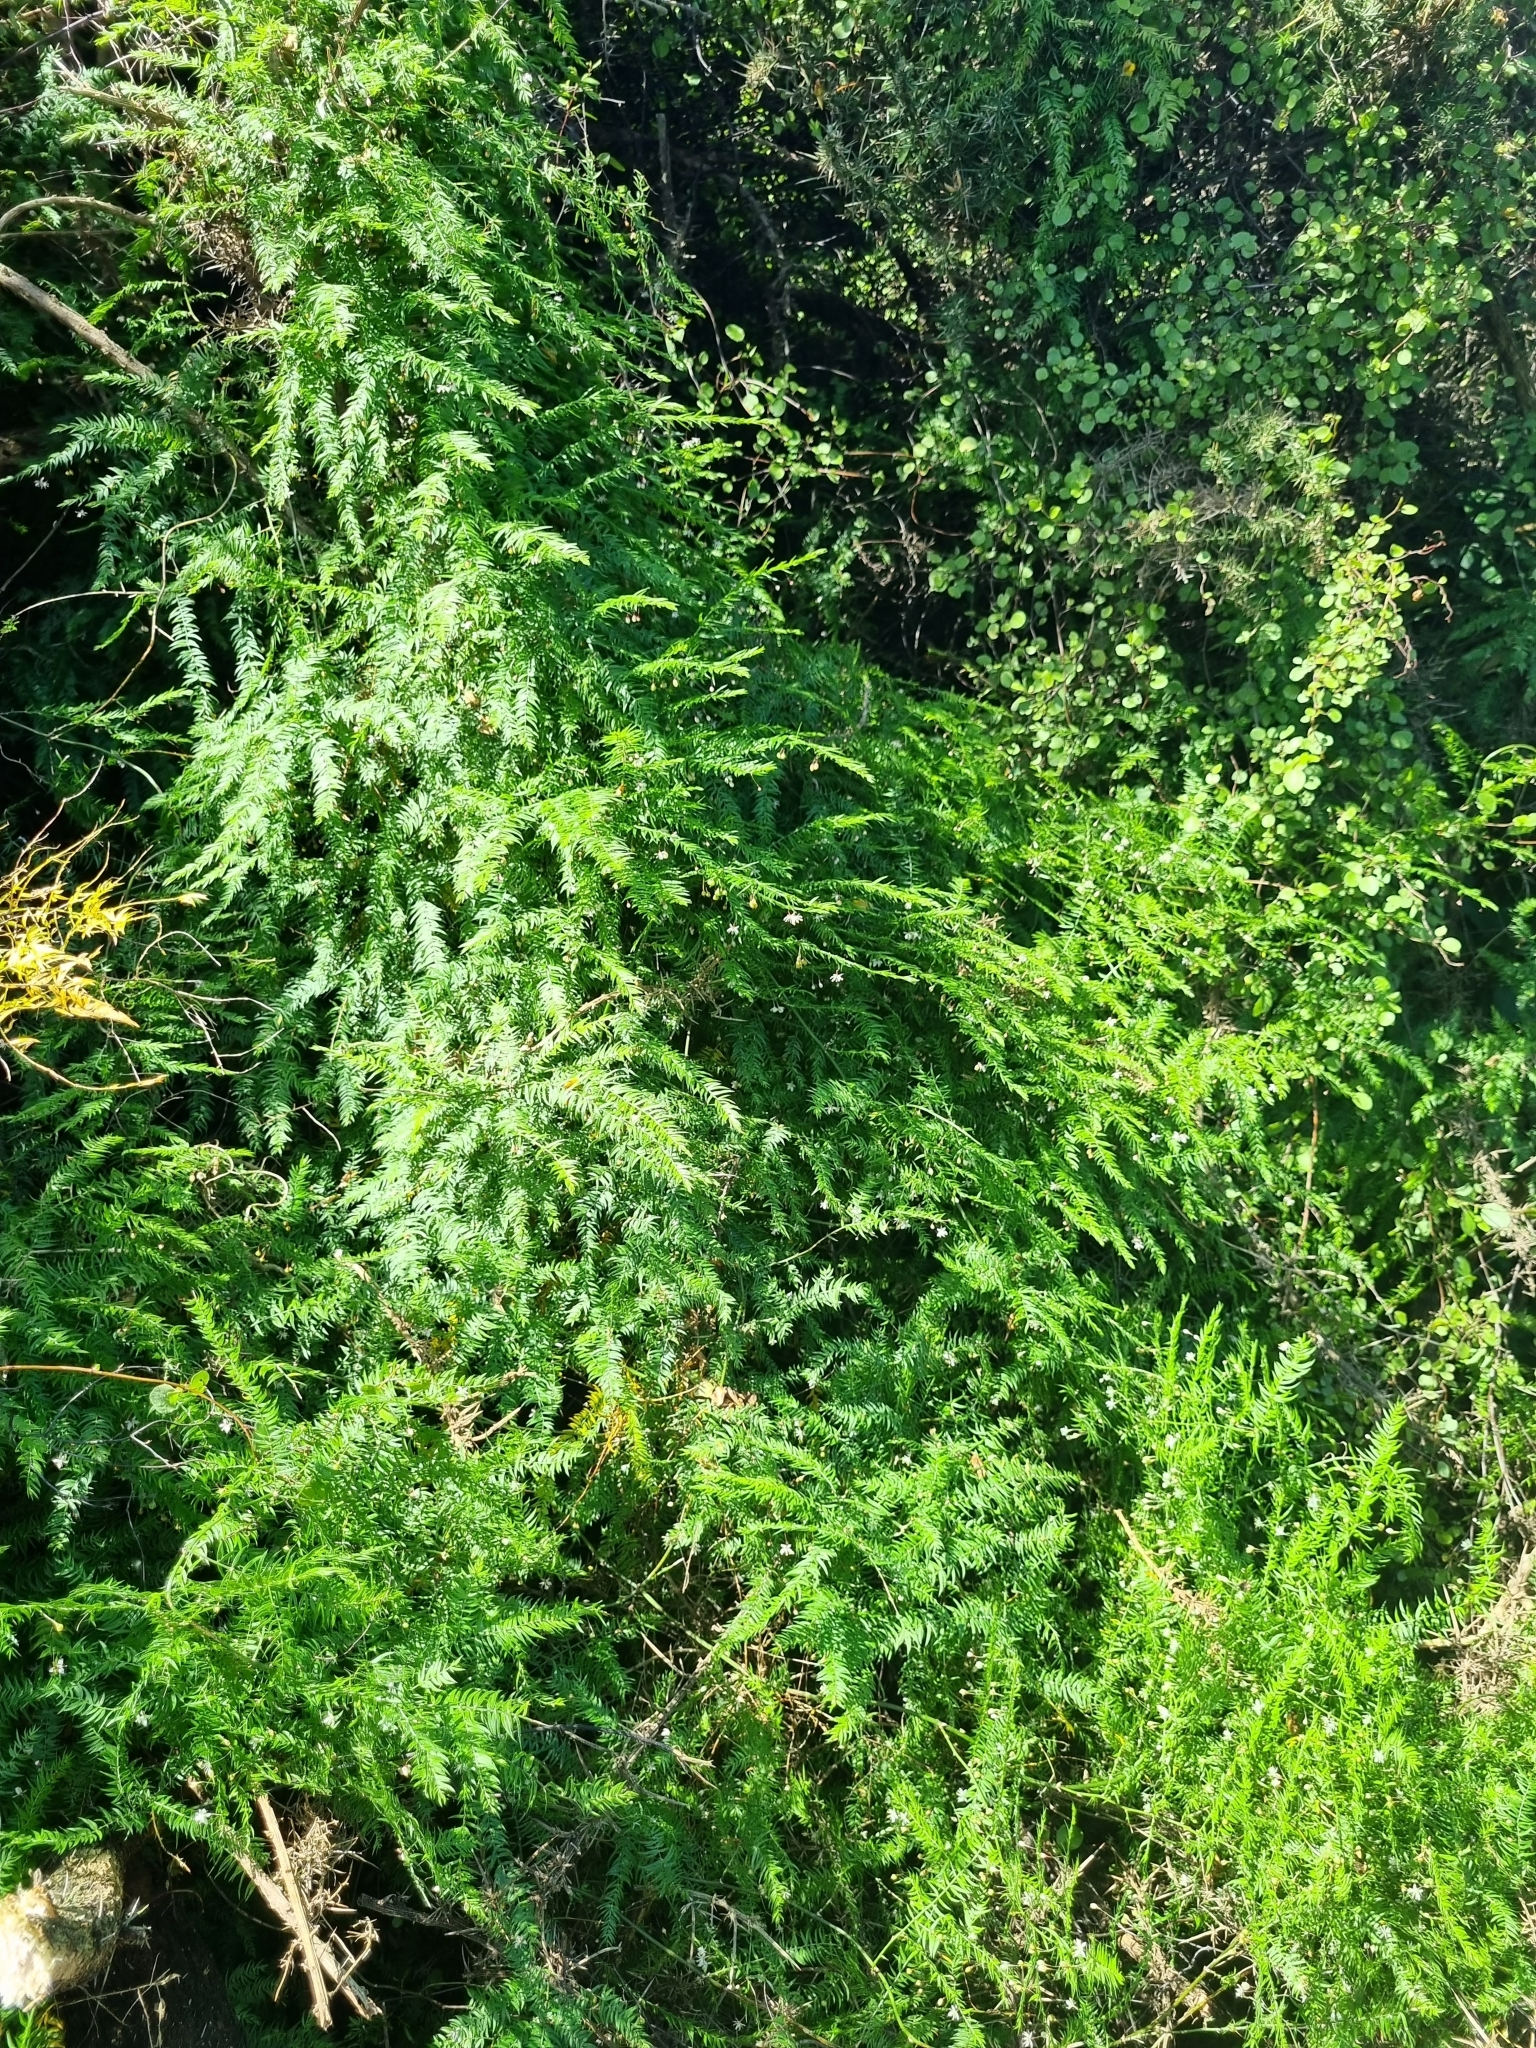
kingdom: Plantae
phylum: Tracheophyta
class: Liliopsida
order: Asparagales
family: Asparagaceae
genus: Asparagus
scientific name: Asparagus scandens
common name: Asparagus-fern
